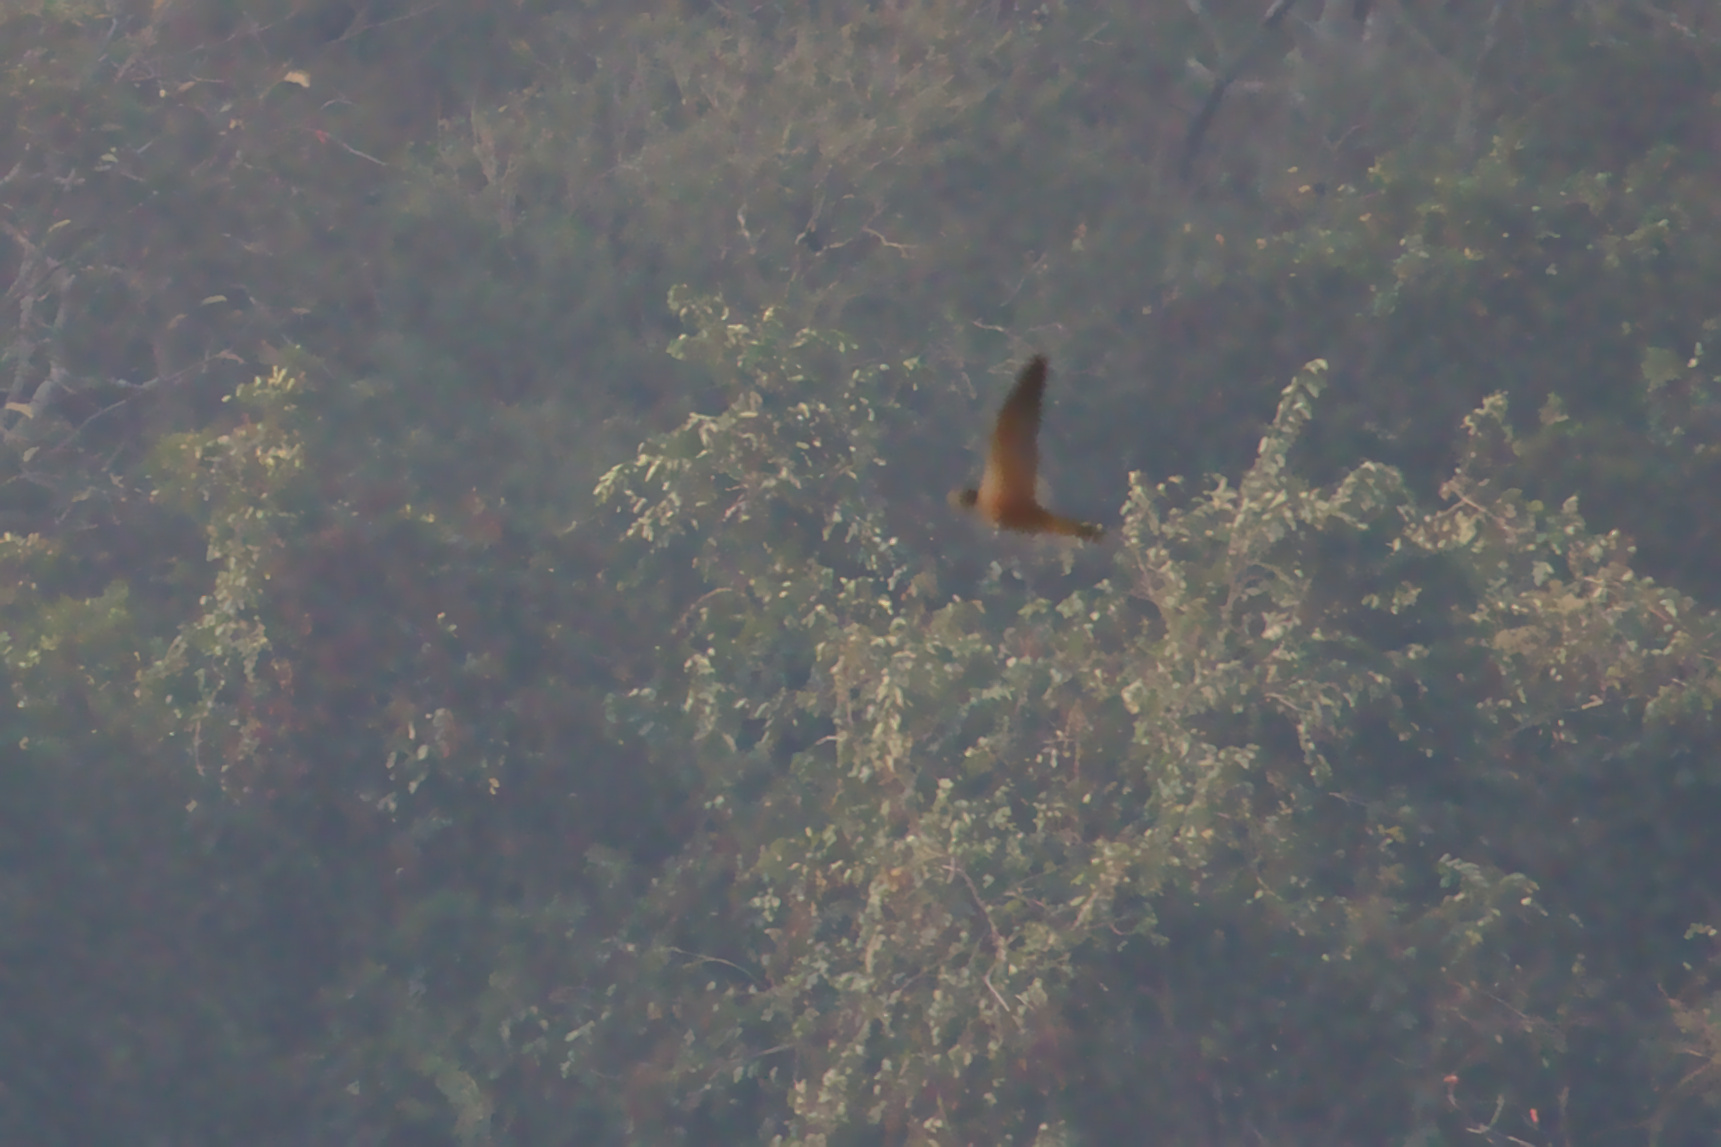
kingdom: Animalia
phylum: Chordata
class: Aves
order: Falconiformes
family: Falconidae
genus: Falco
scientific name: Falco peregrinus
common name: Peregrine falcon
